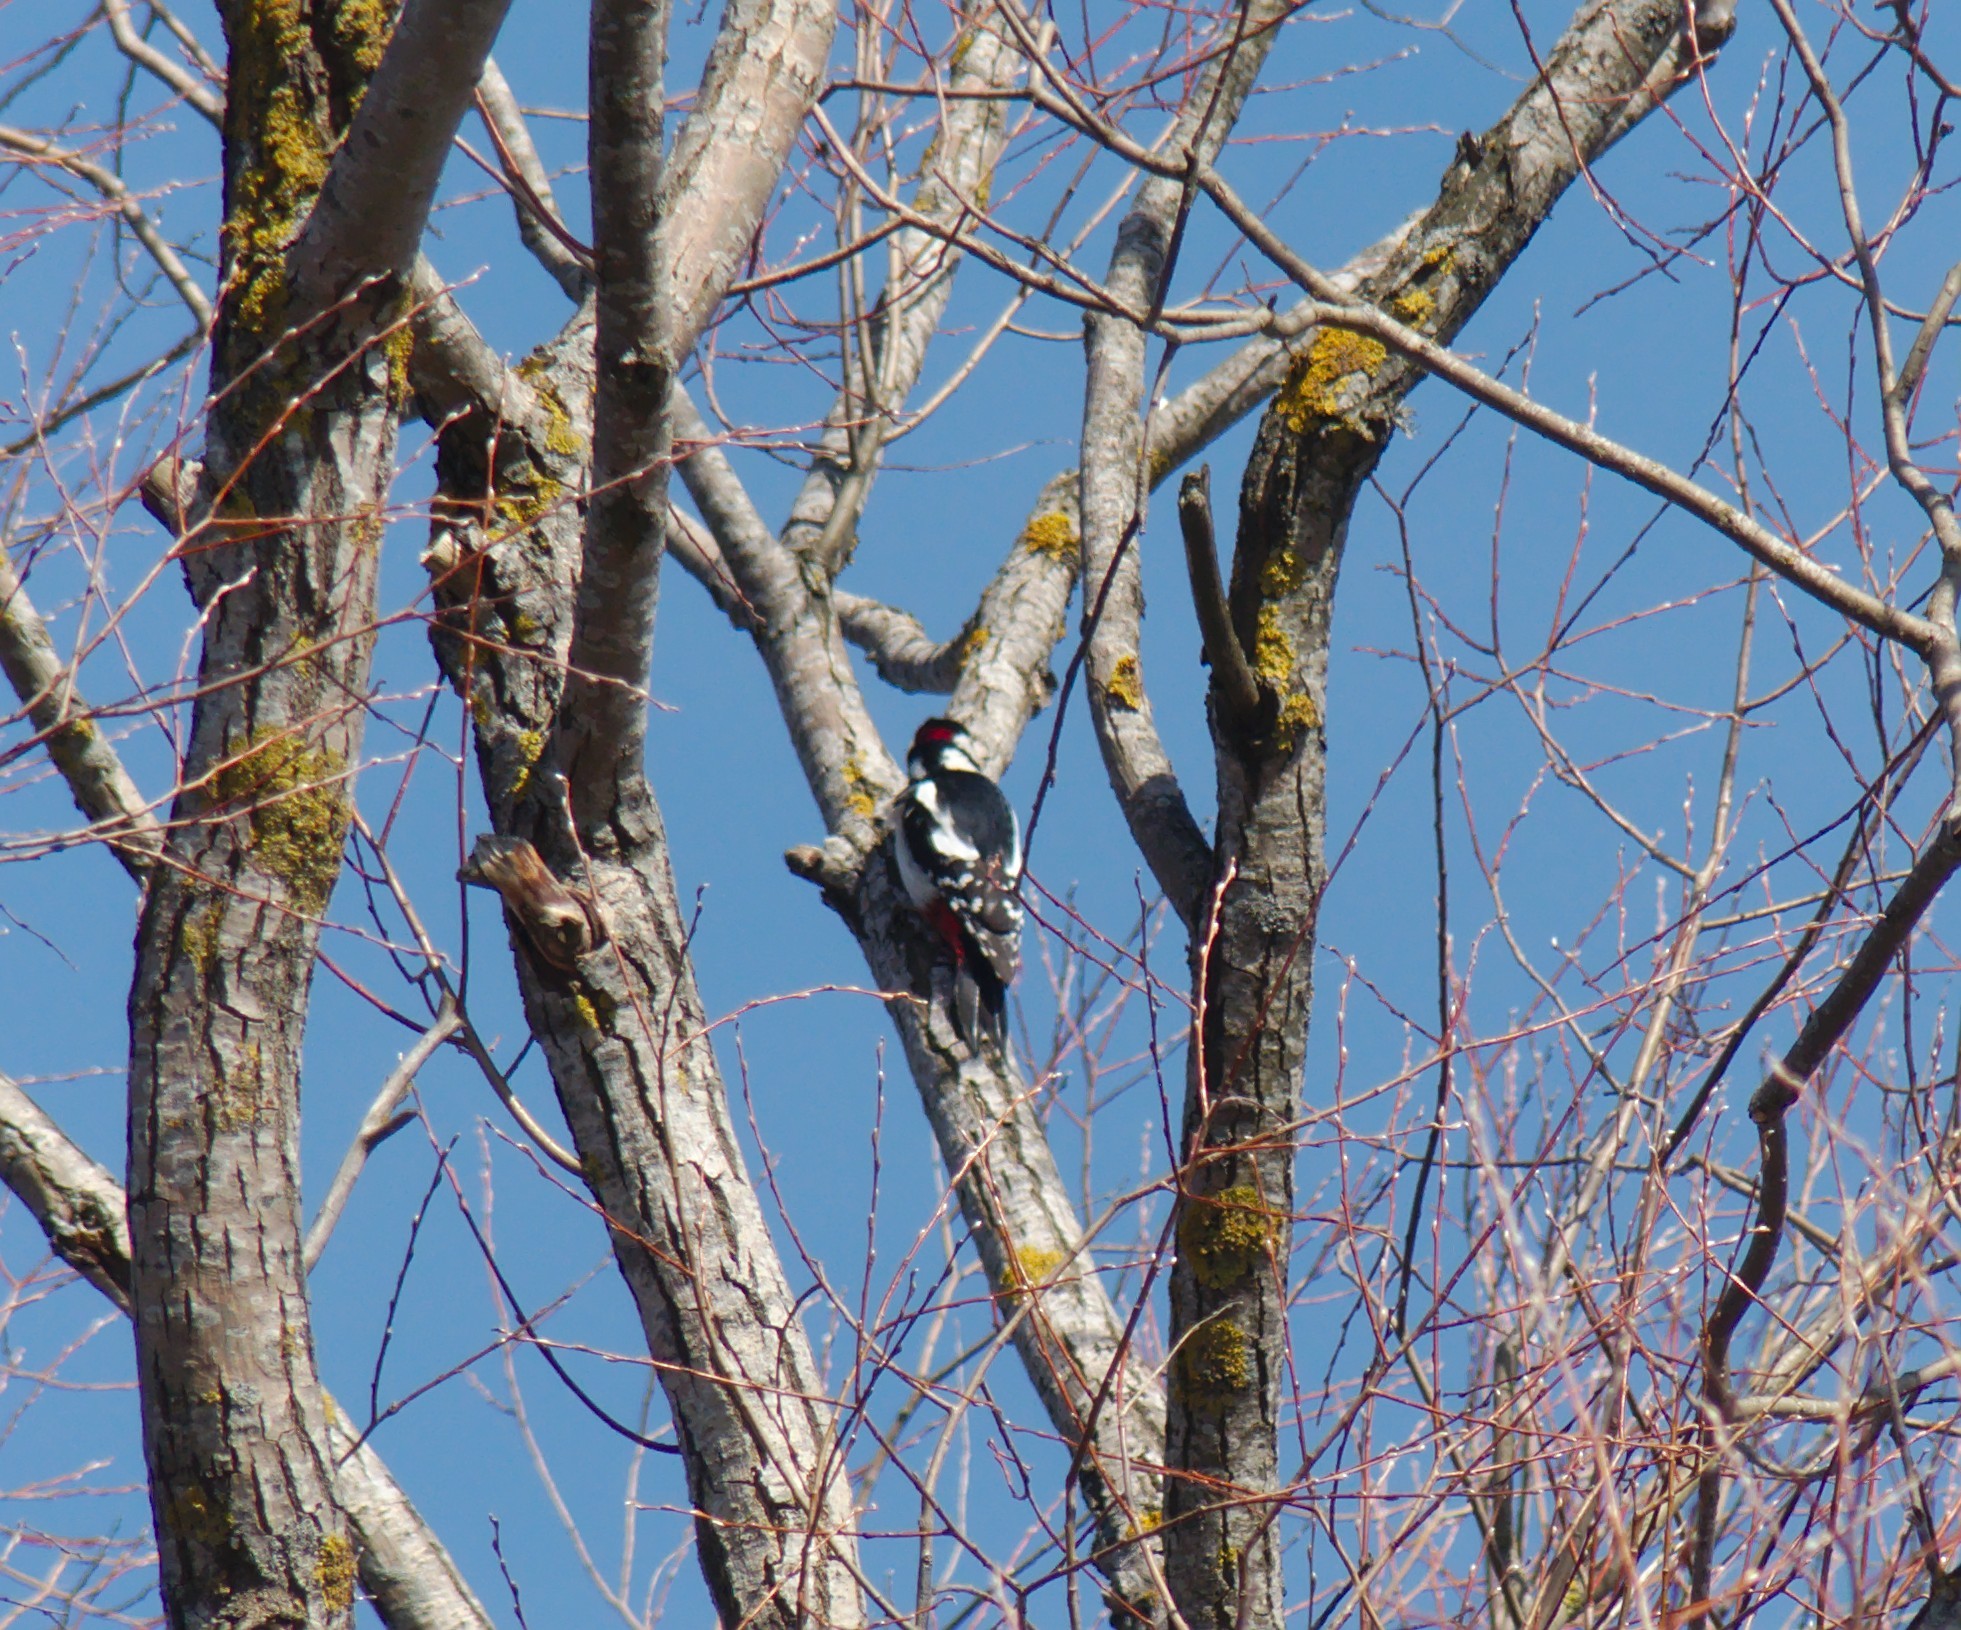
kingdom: Animalia
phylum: Chordata
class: Aves
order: Piciformes
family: Picidae
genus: Dendrocopos
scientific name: Dendrocopos major
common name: Great spotted woodpecker
